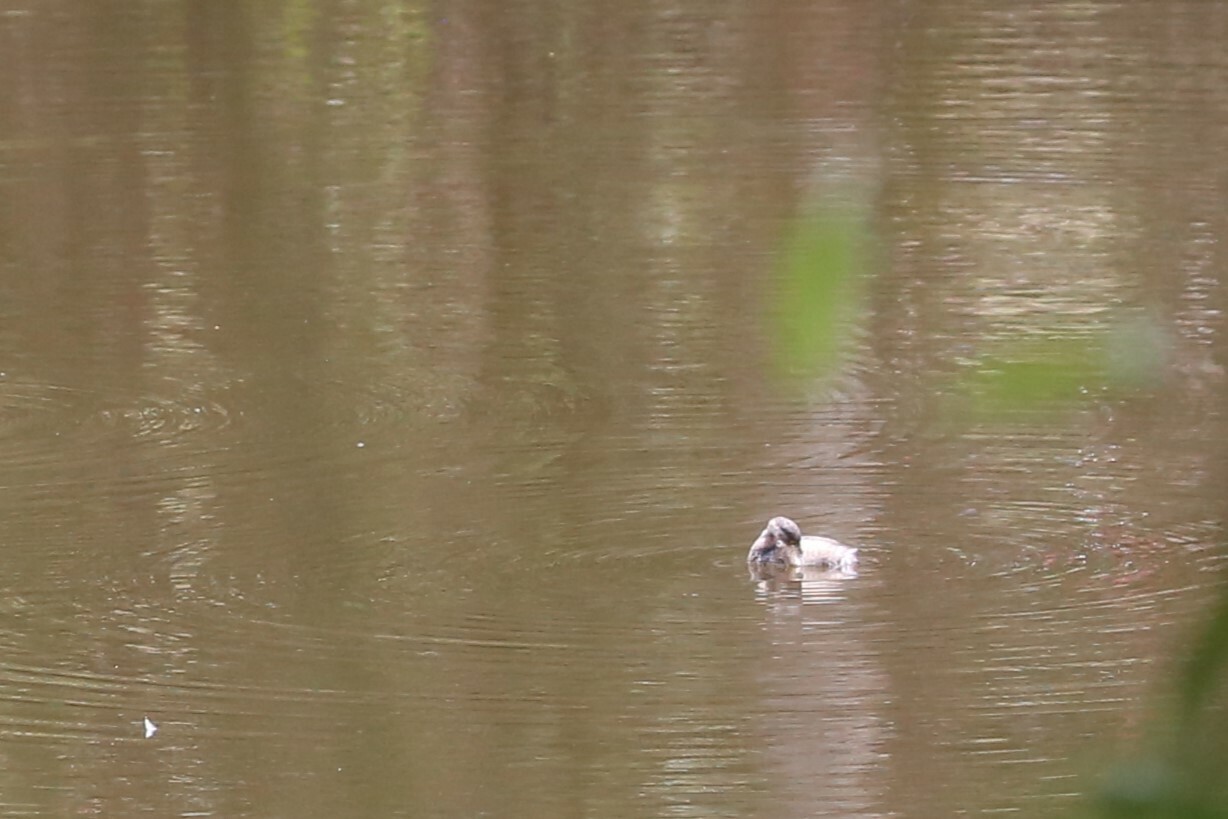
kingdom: Animalia
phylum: Chordata
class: Aves
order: Podicipediformes
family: Podicipedidae
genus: Tachybaptus
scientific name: Tachybaptus novaehollandiae
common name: Australasian grebe
